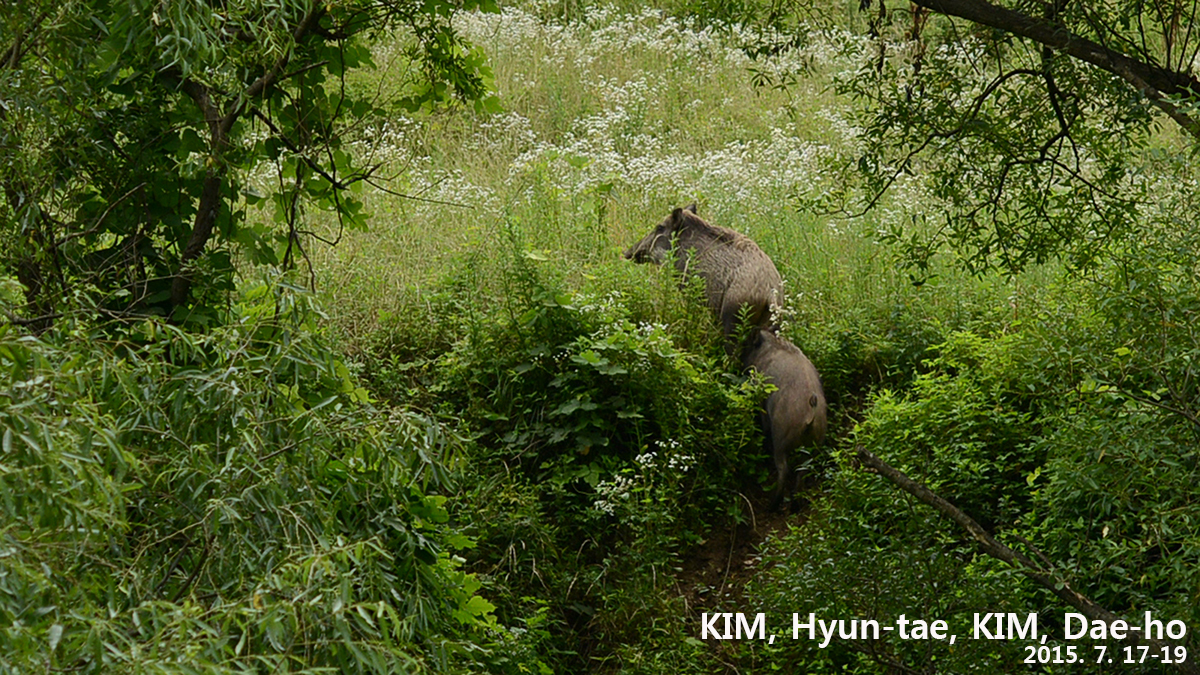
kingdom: Animalia
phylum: Chordata
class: Mammalia
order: Artiodactyla
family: Suidae
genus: Sus
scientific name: Sus scrofa
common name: Wild boar
